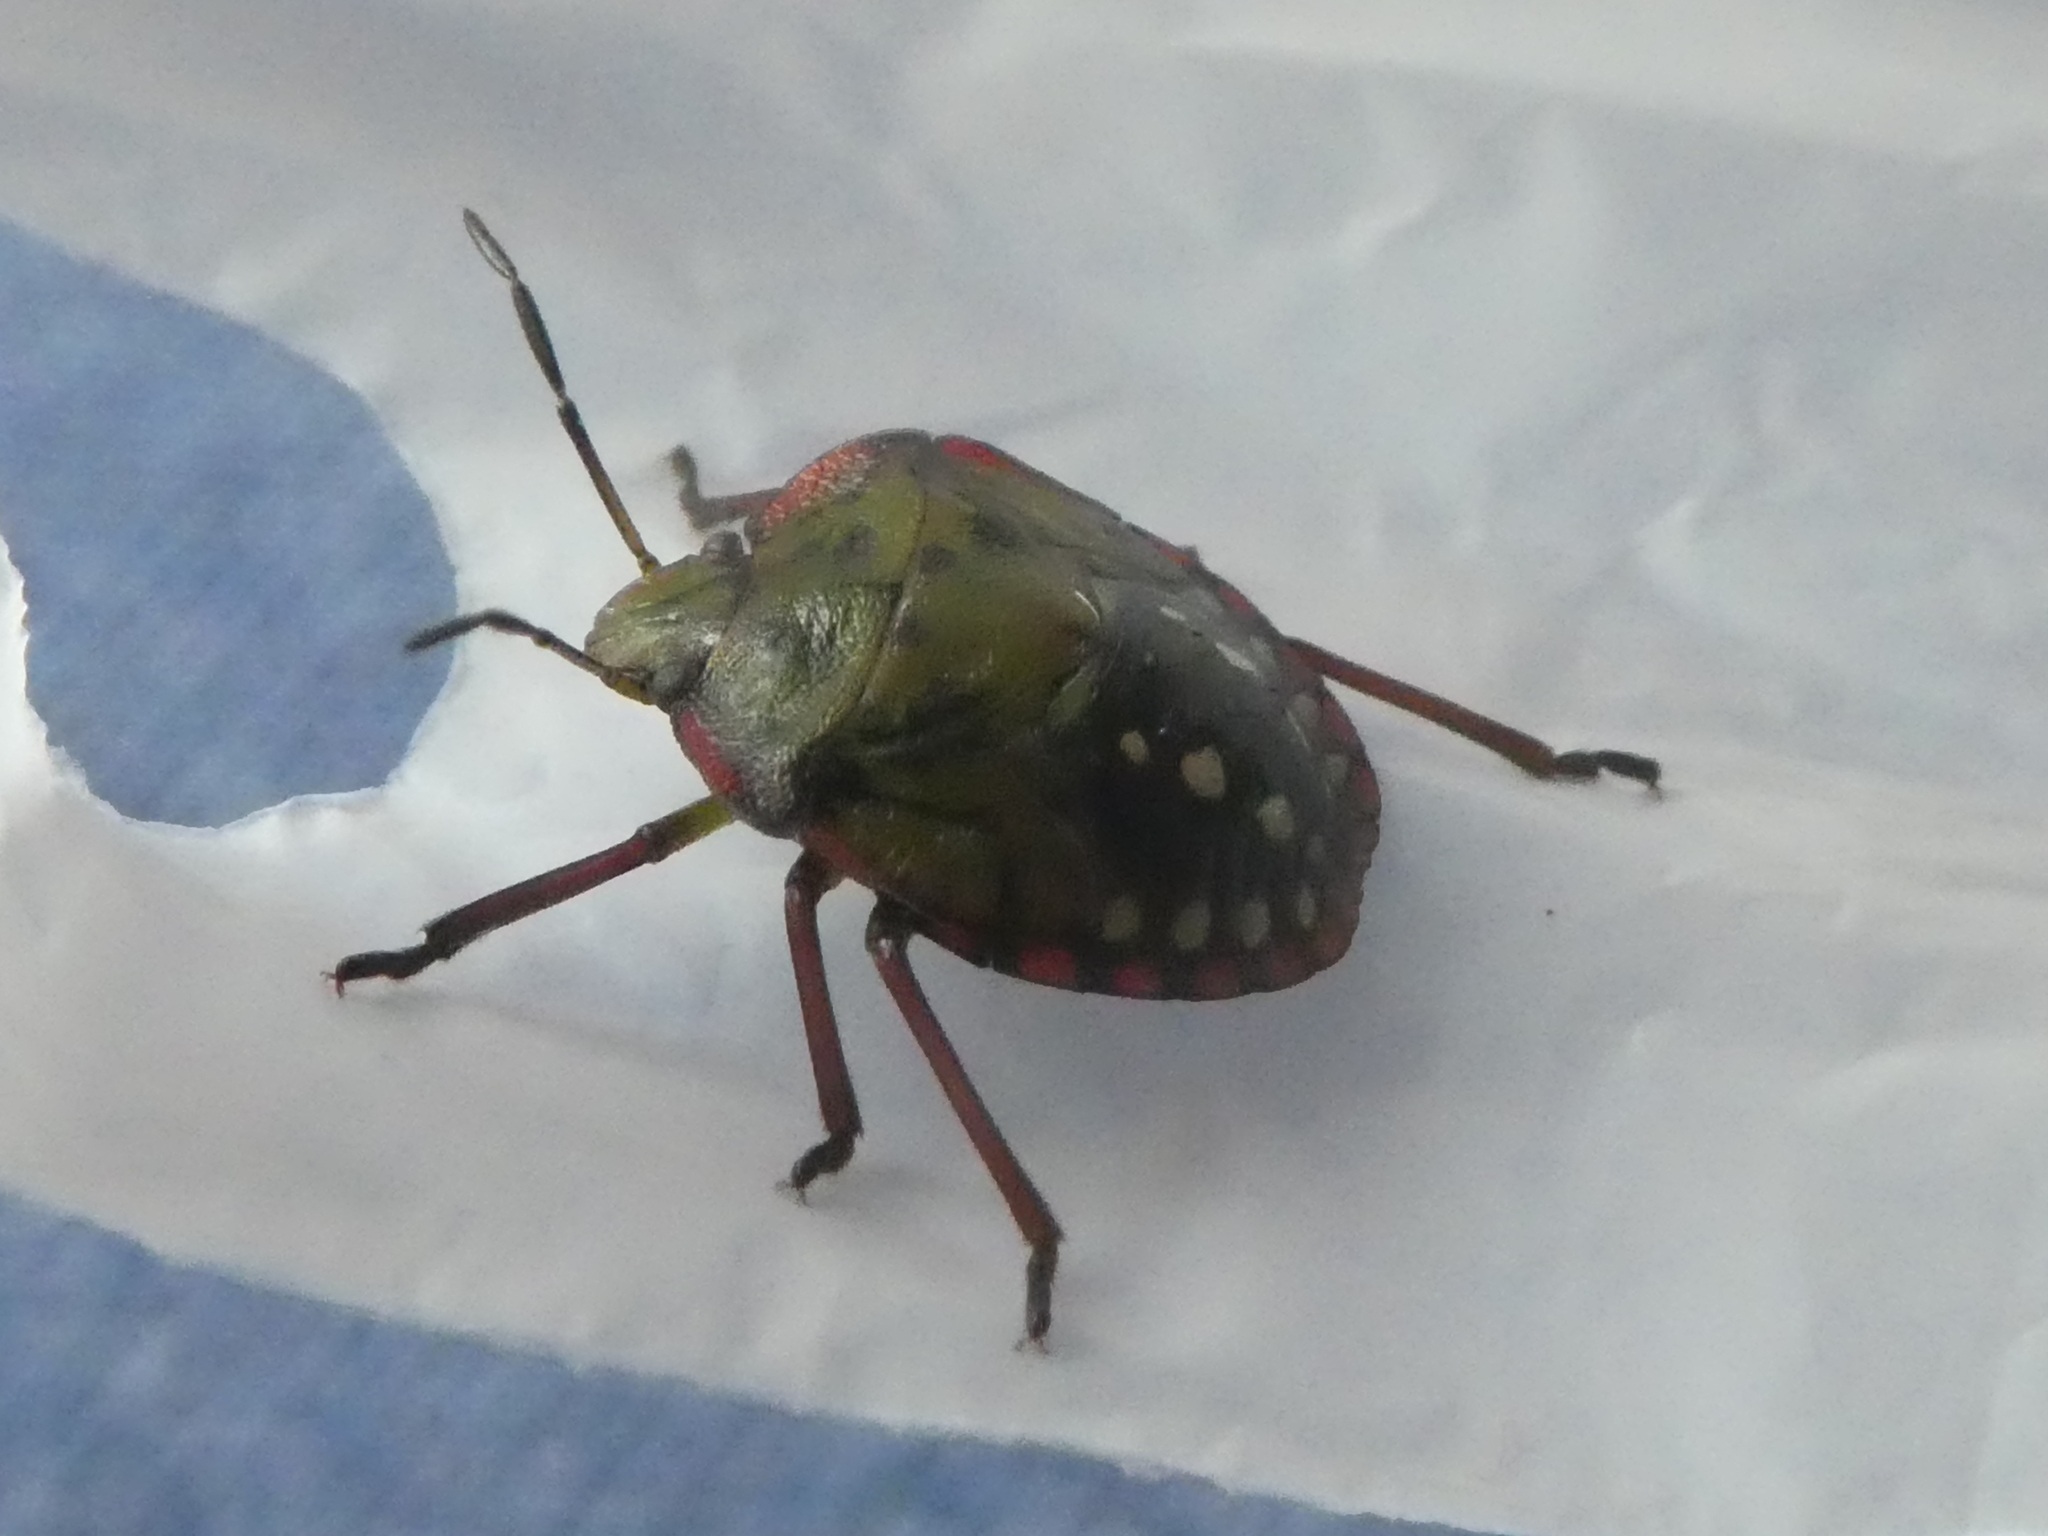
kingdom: Animalia
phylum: Arthropoda
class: Insecta
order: Hemiptera
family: Pentatomidae
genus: Nezara
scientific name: Nezara viridula
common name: Southern green stink bug
